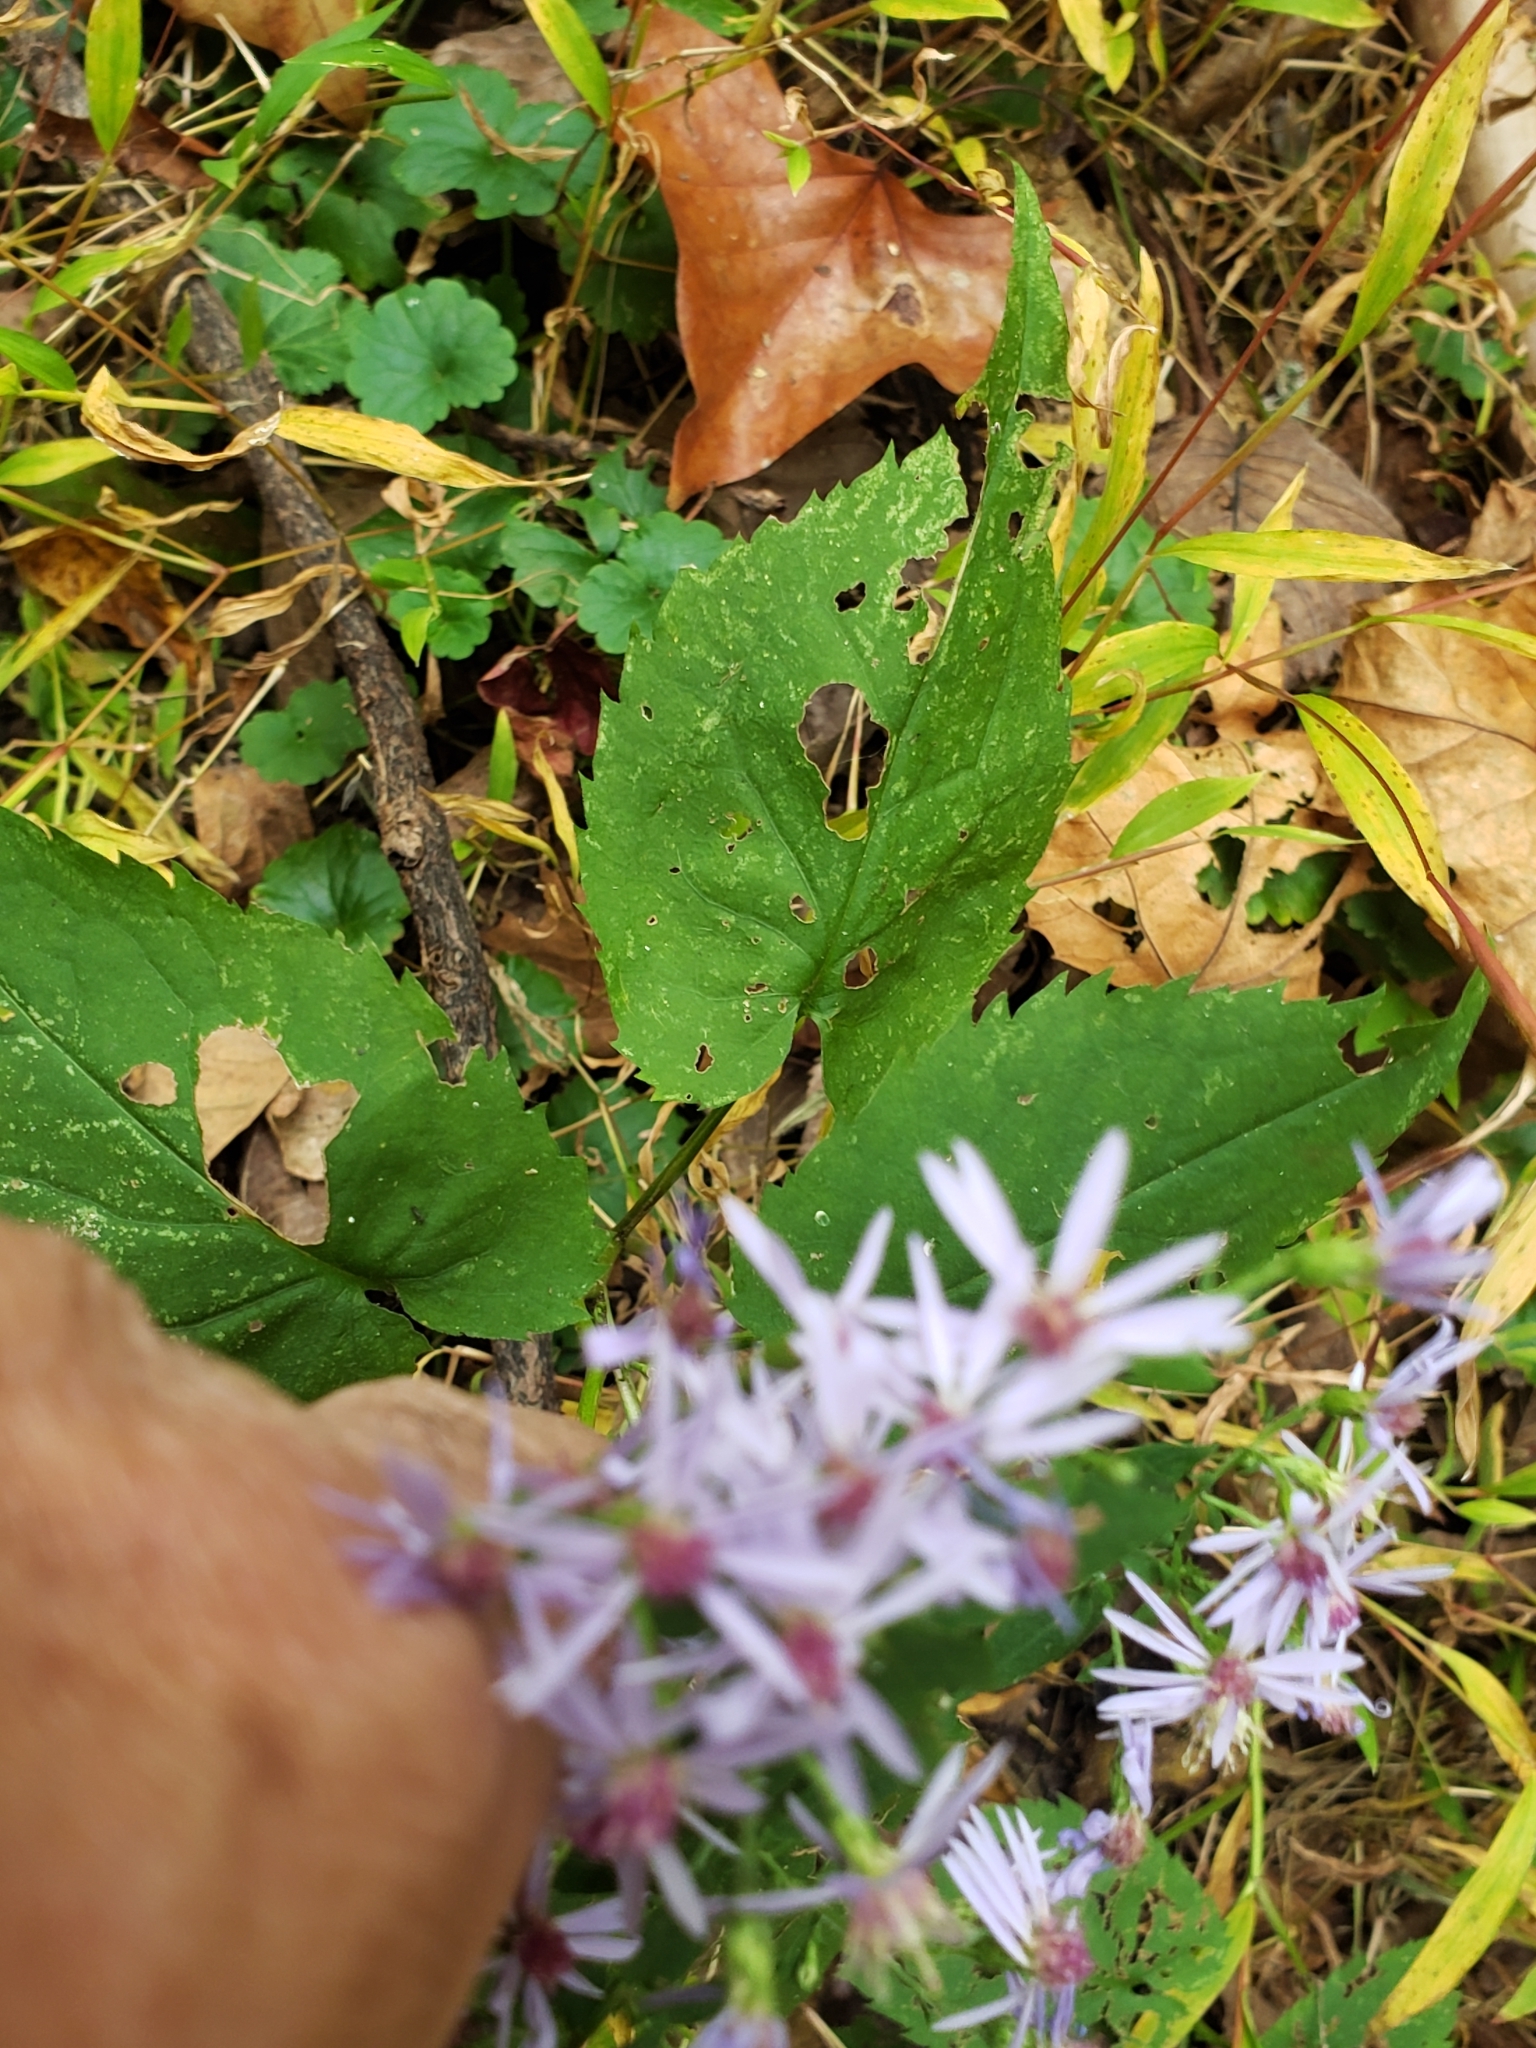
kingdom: Plantae
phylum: Tracheophyta
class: Magnoliopsida
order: Asterales
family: Asteraceae
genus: Symphyotrichum
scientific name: Symphyotrichum cordifolium
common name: Beeweed
